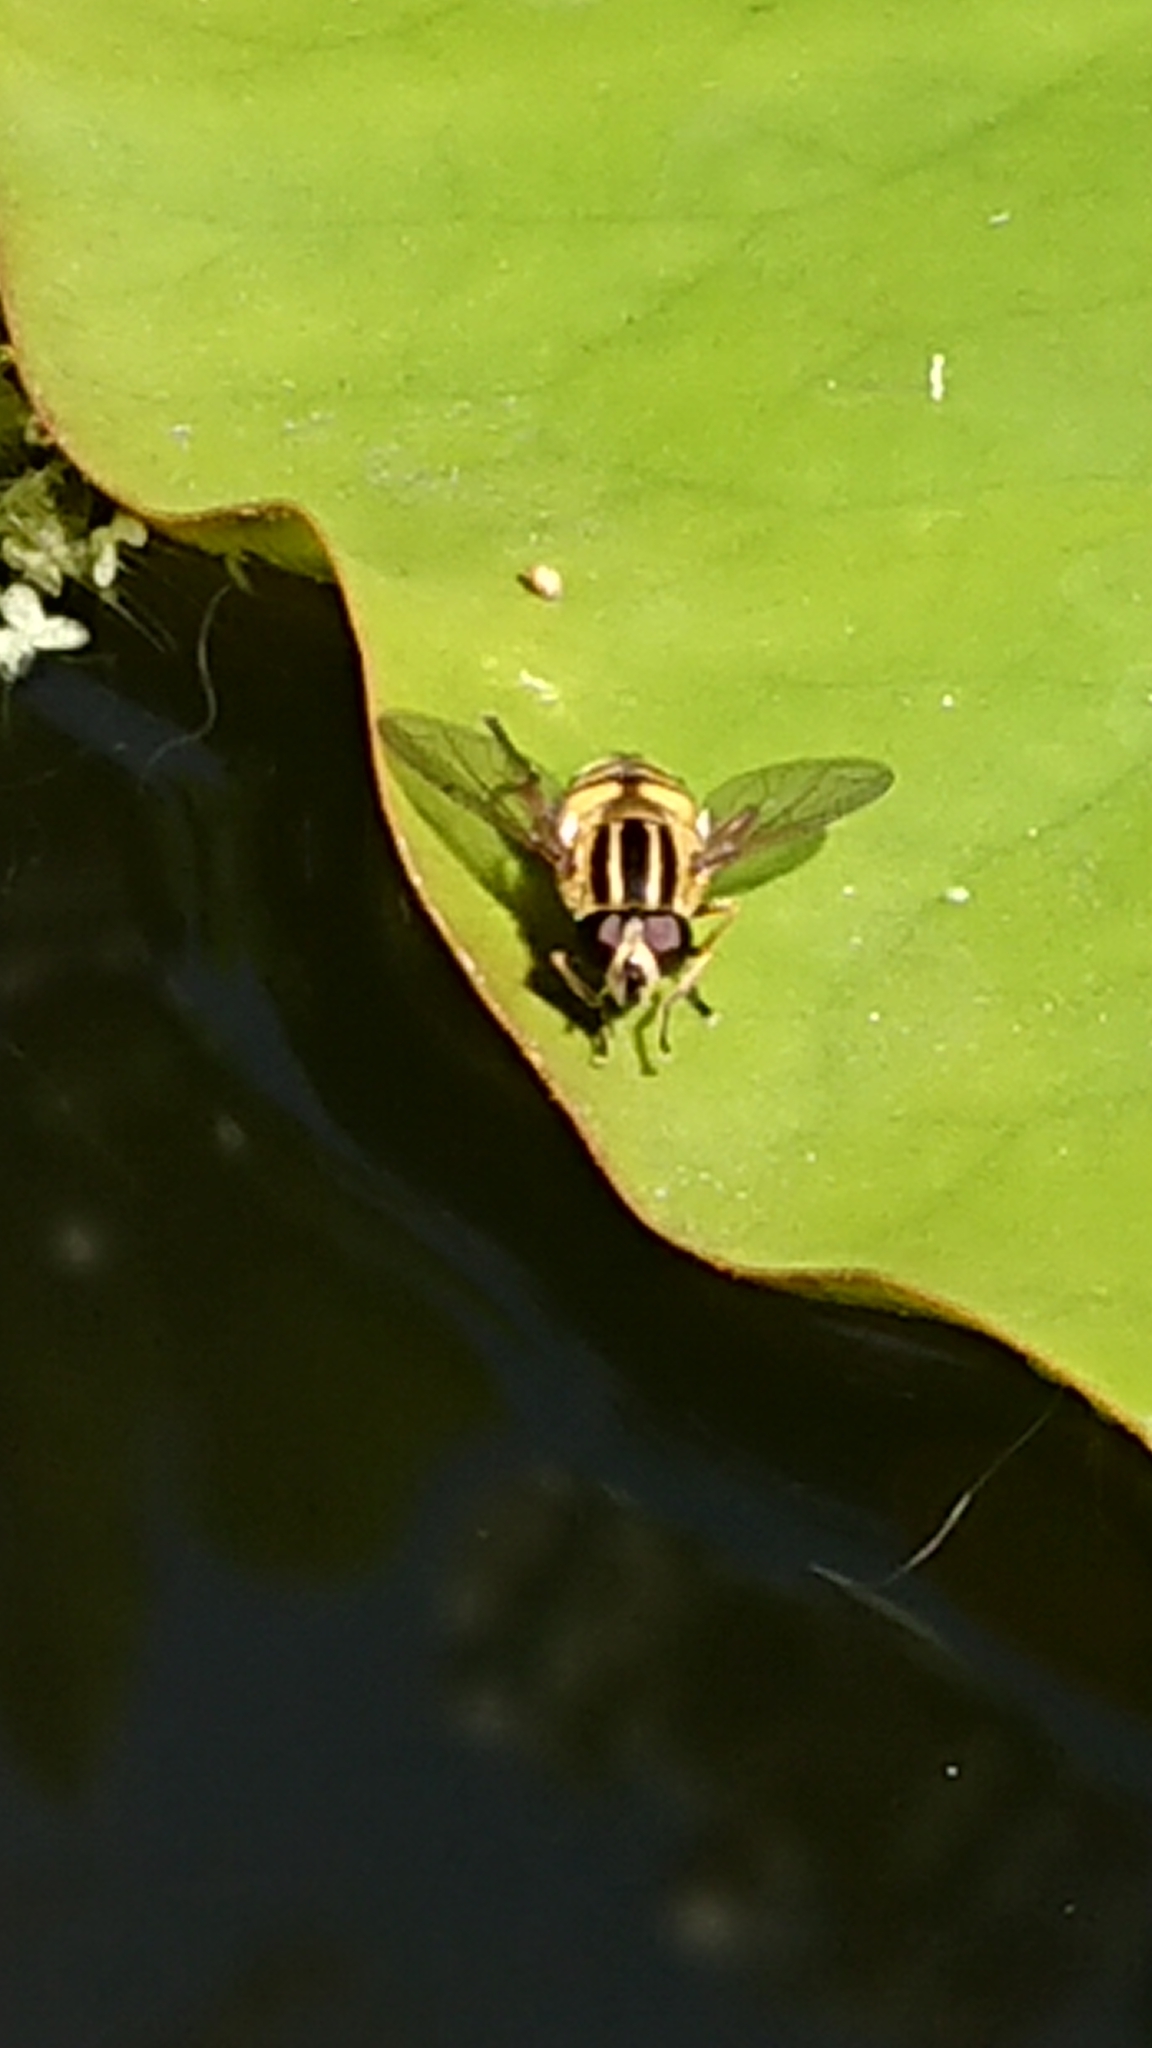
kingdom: Animalia
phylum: Arthropoda
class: Insecta
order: Diptera
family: Syrphidae
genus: Helophilus
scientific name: Helophilus pendulus
